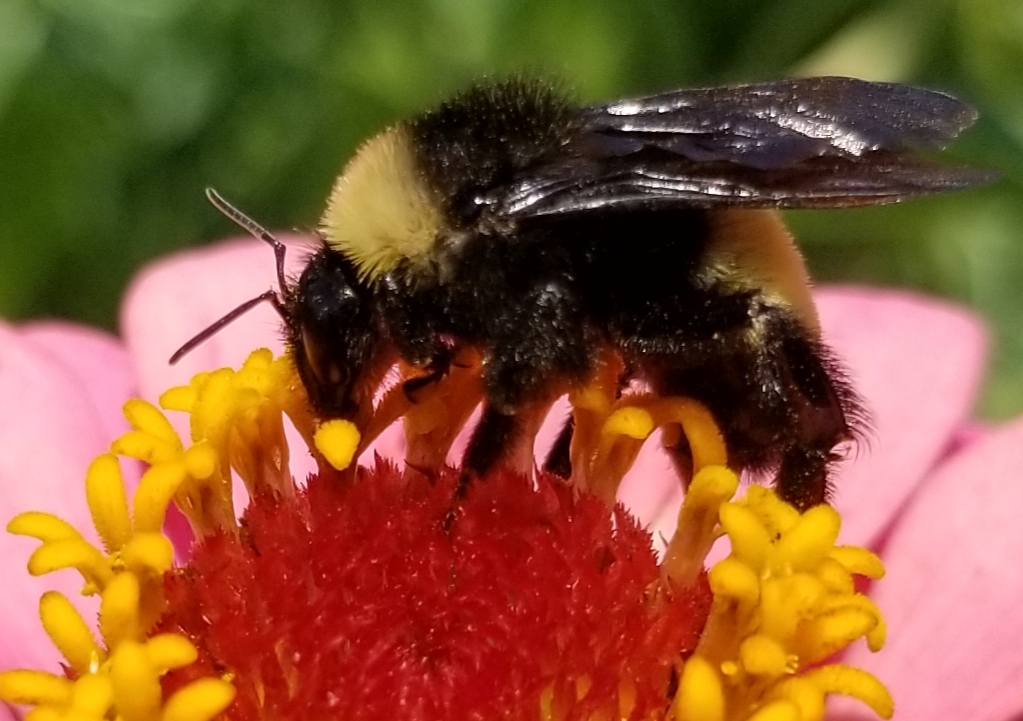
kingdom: Animalia
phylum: Arthropoda
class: Insecta
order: Hymenoptera
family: Apidae
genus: Bombus
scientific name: Bombus pensylvanicus
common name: Bumble bee
